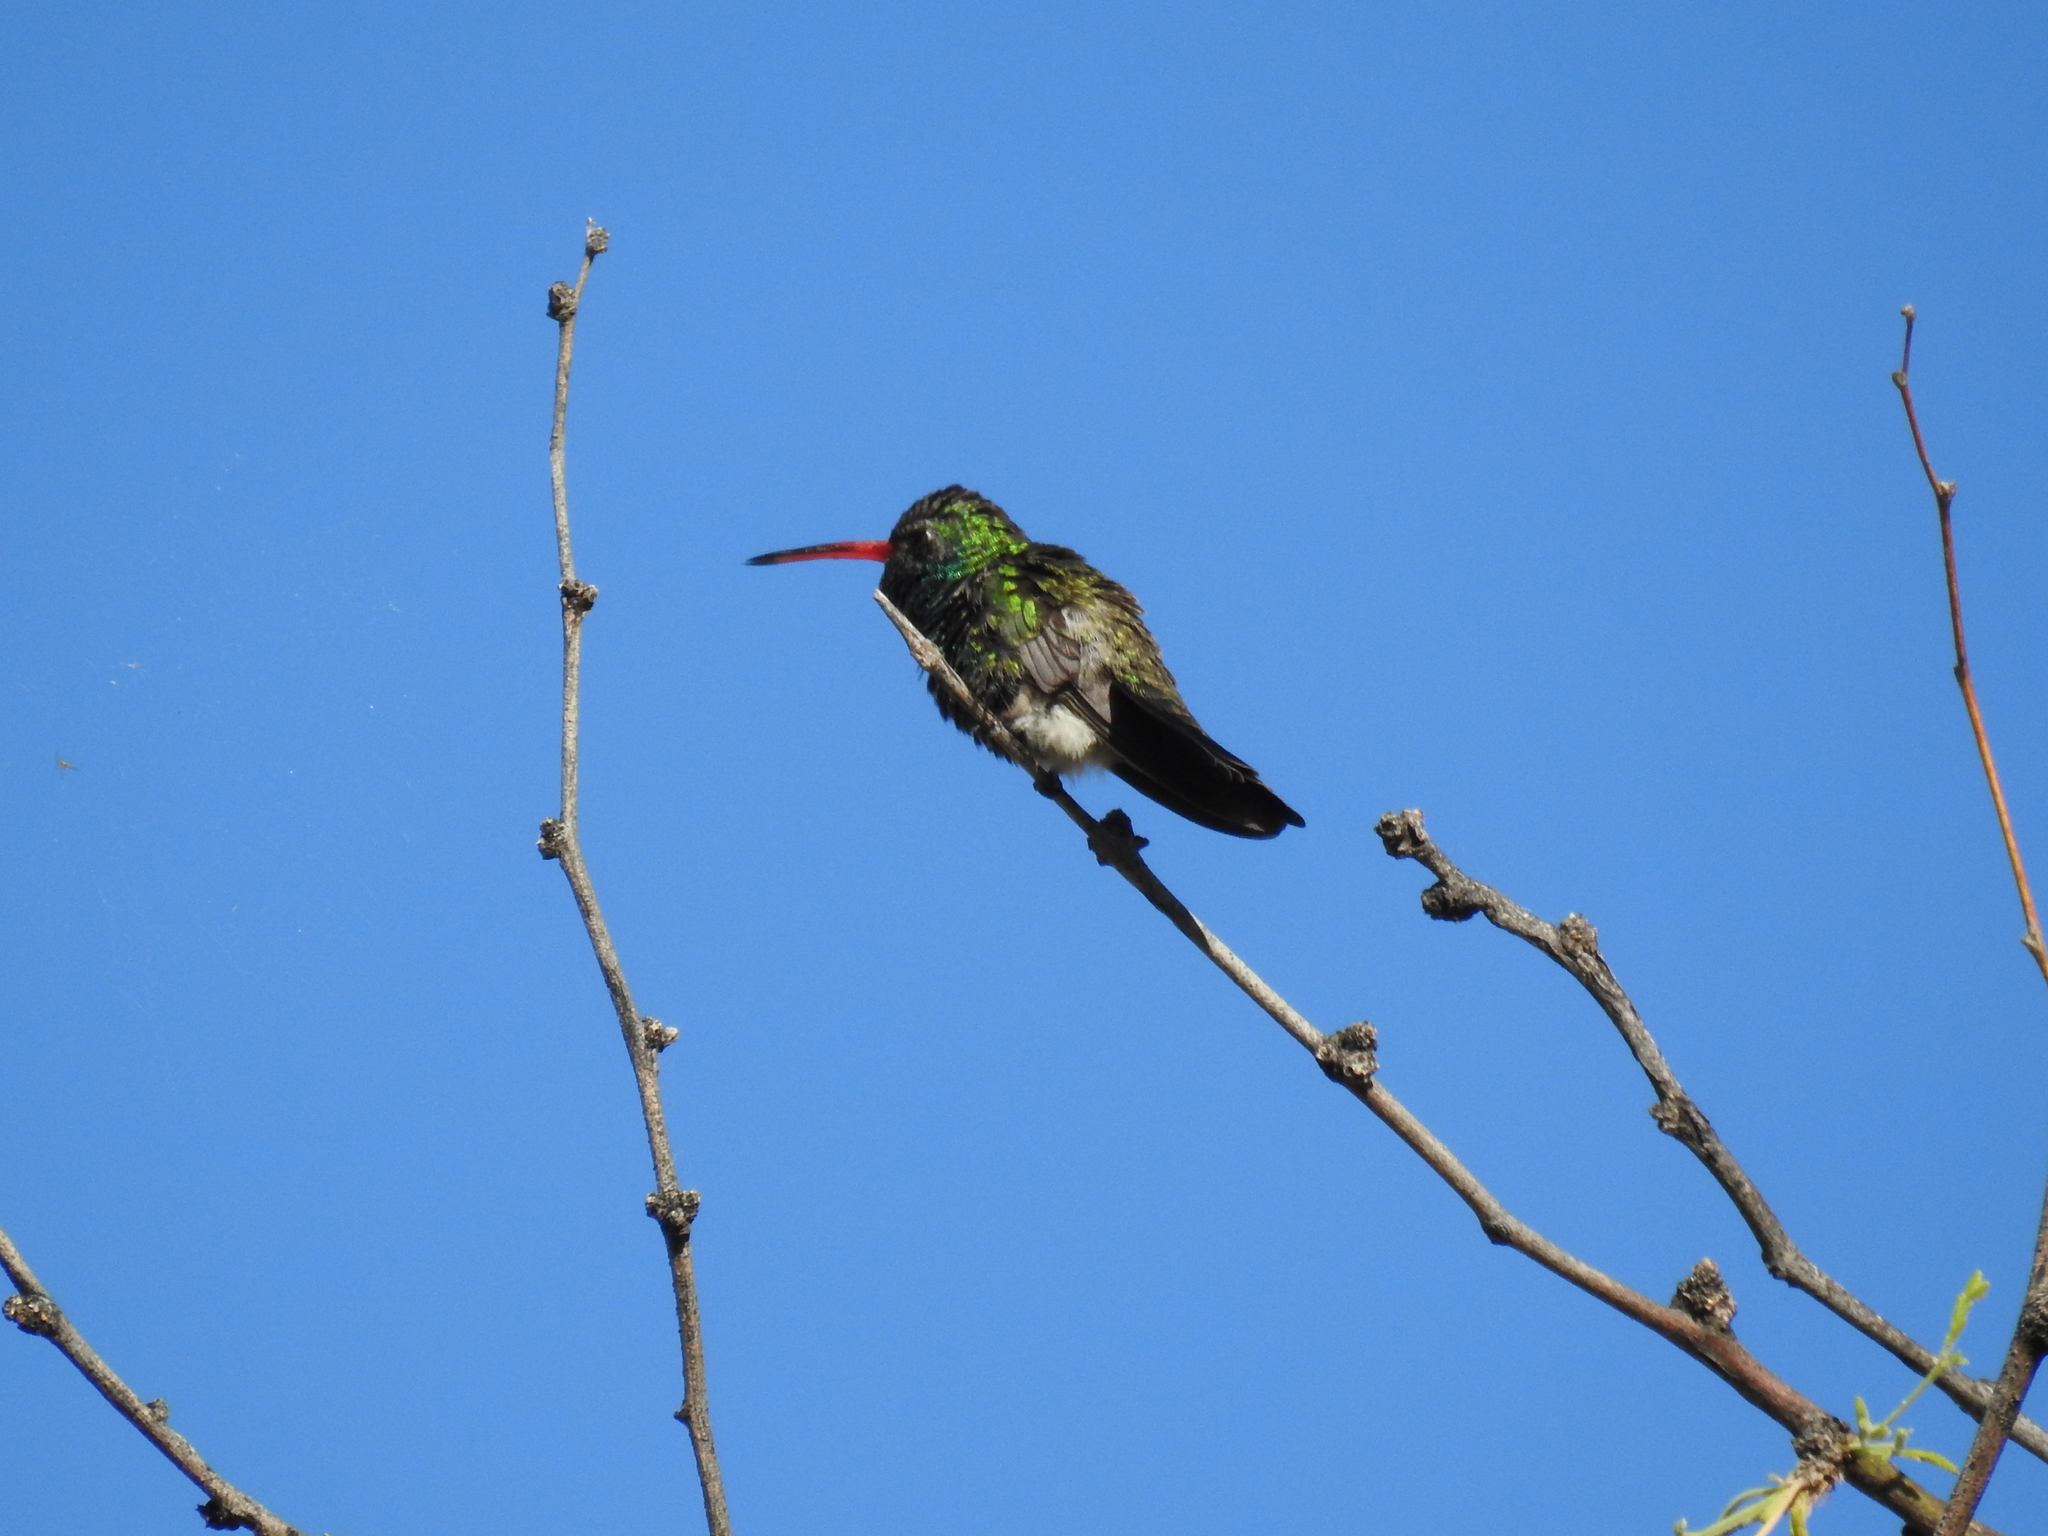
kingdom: Animalia
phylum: Chordata
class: Aves
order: Apodiformes
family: Trochilidae
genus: Cynanthus
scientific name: Cynanthus latirostris
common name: Broad-billed hummingbird
